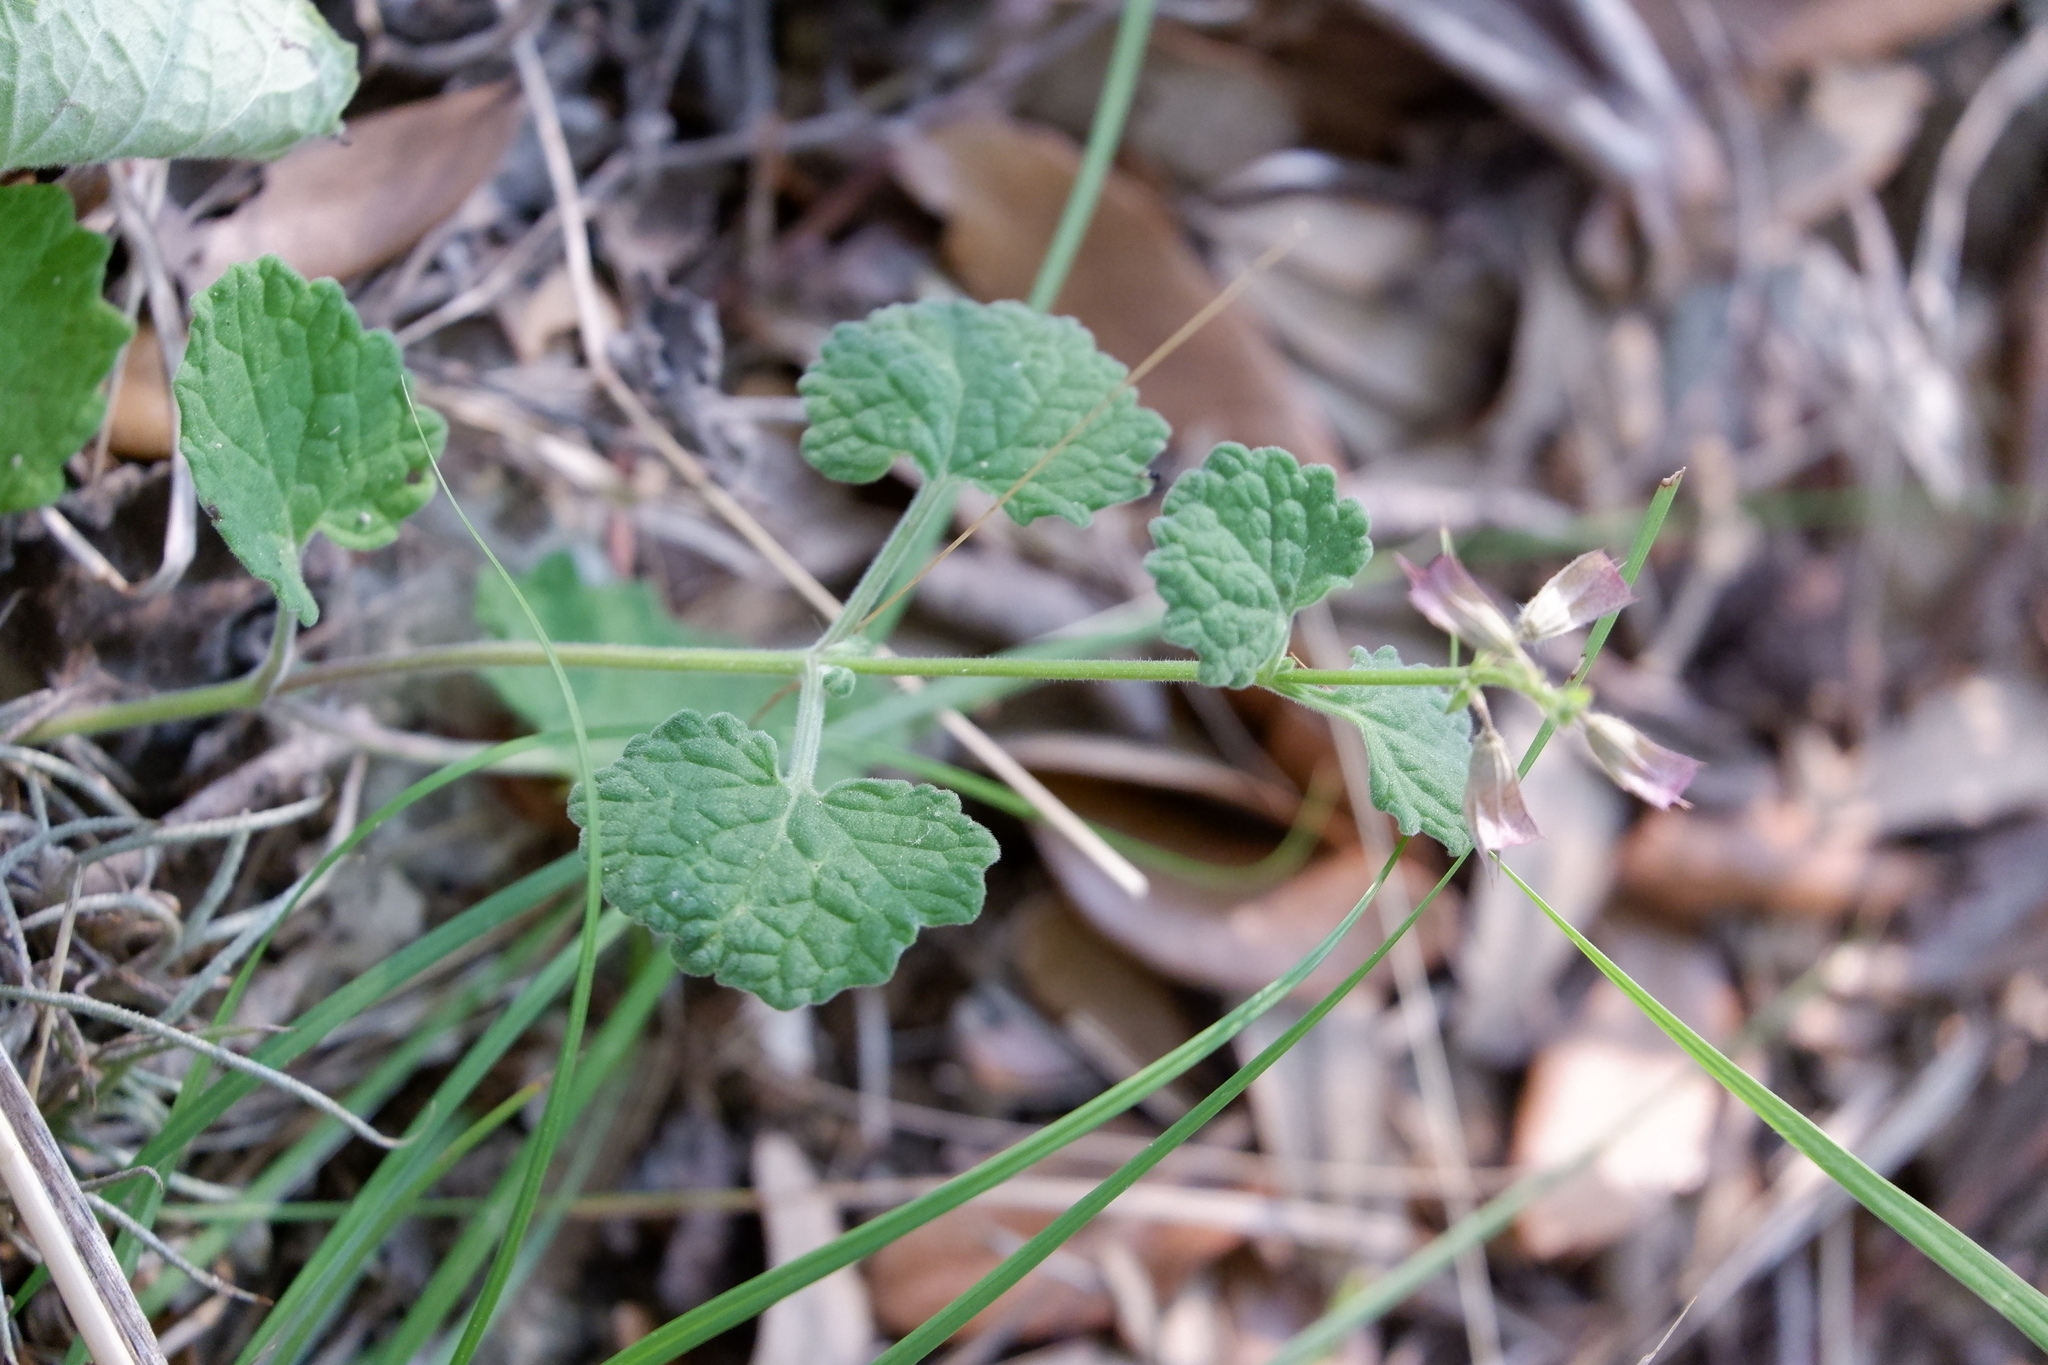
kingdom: Plantae
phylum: Tracheophyta
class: Magnoliopsida
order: Lamiales
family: Lamiaceae
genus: Salvia
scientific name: Salvia roemeriana
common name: Cedar sage
